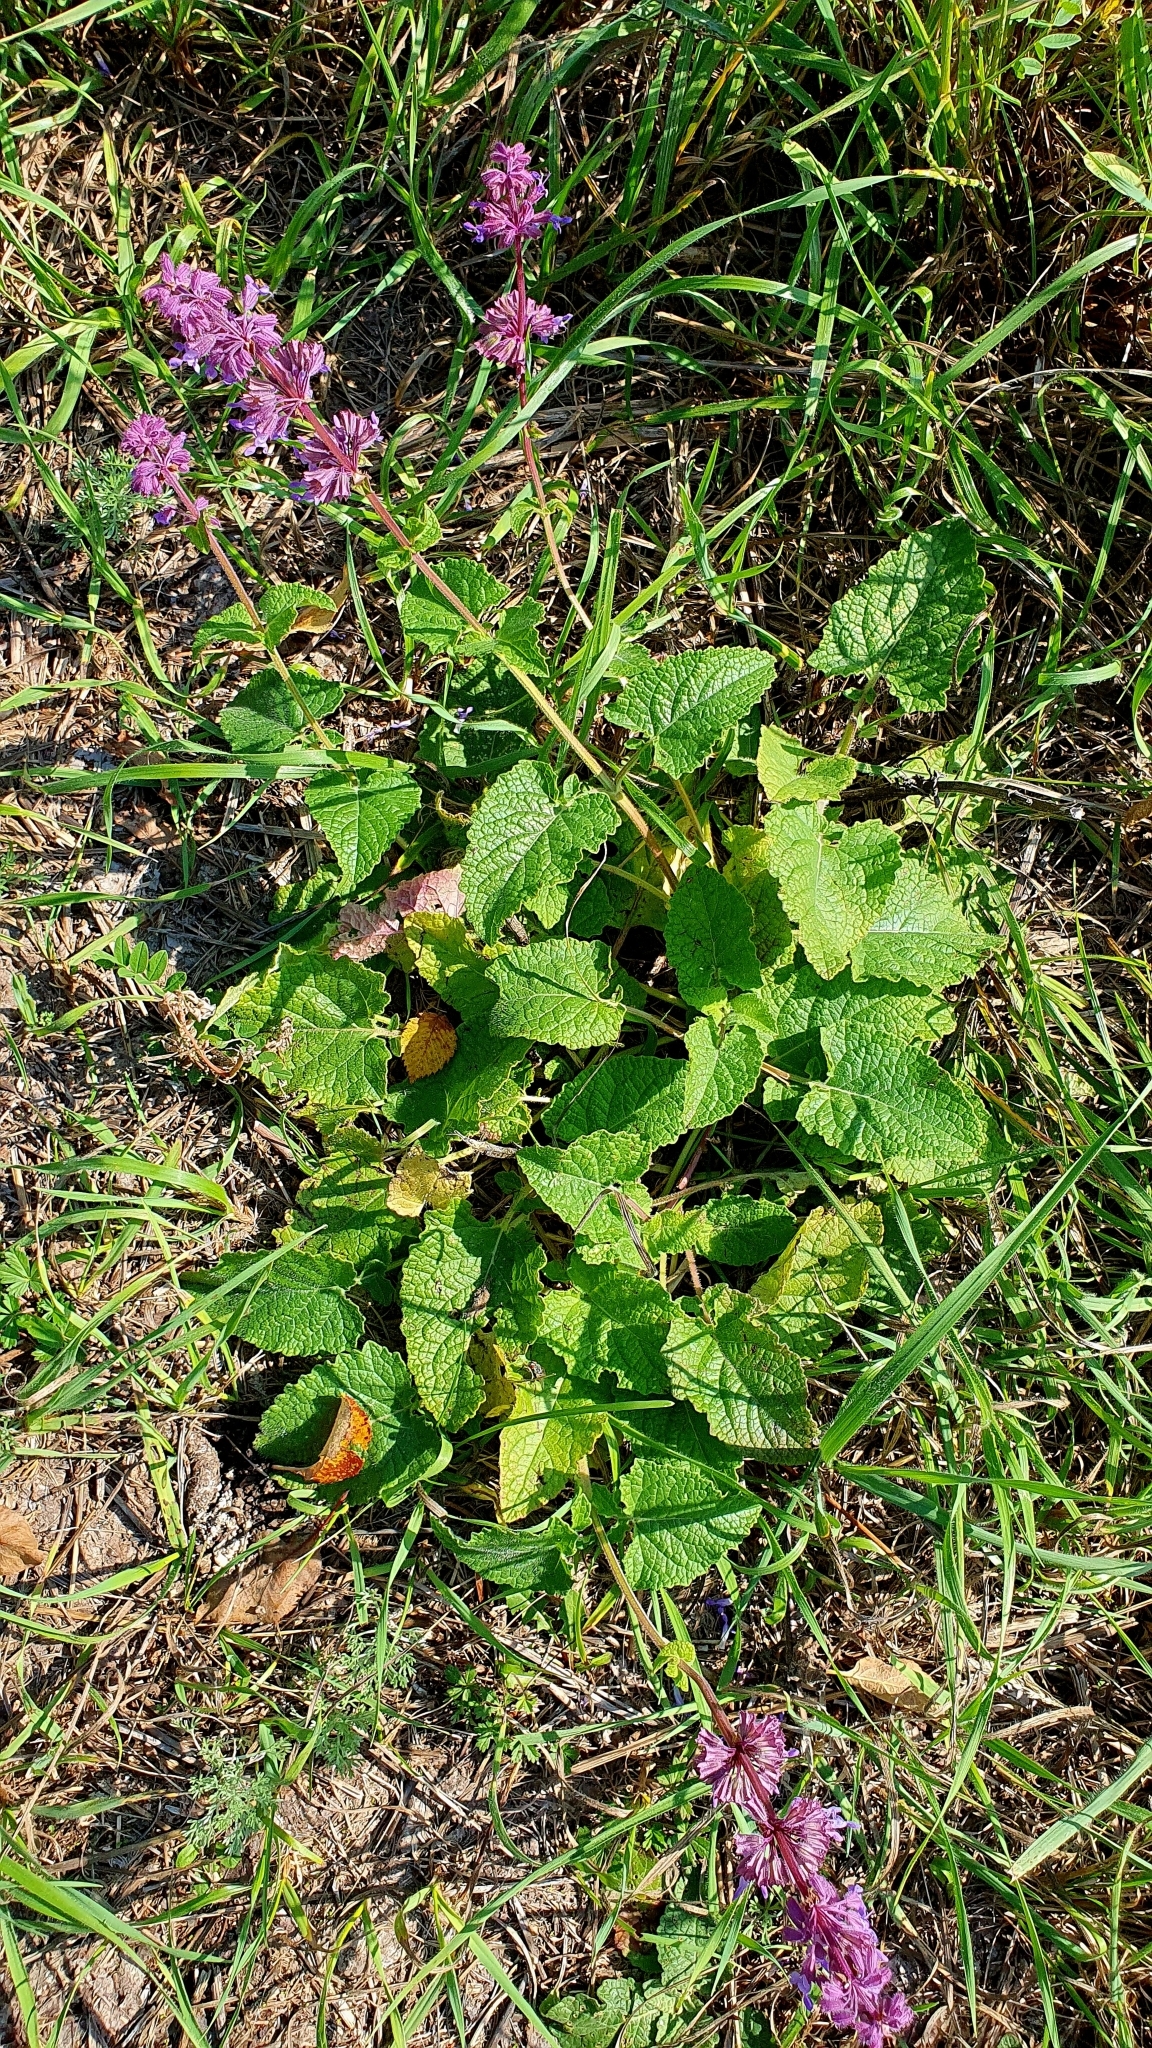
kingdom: Plantae
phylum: Tracheophyta
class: Magnoliopsida
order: Lamiales
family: Lamiaceae
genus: Salvia
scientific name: Salvia verticillata
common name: Whorled clary
